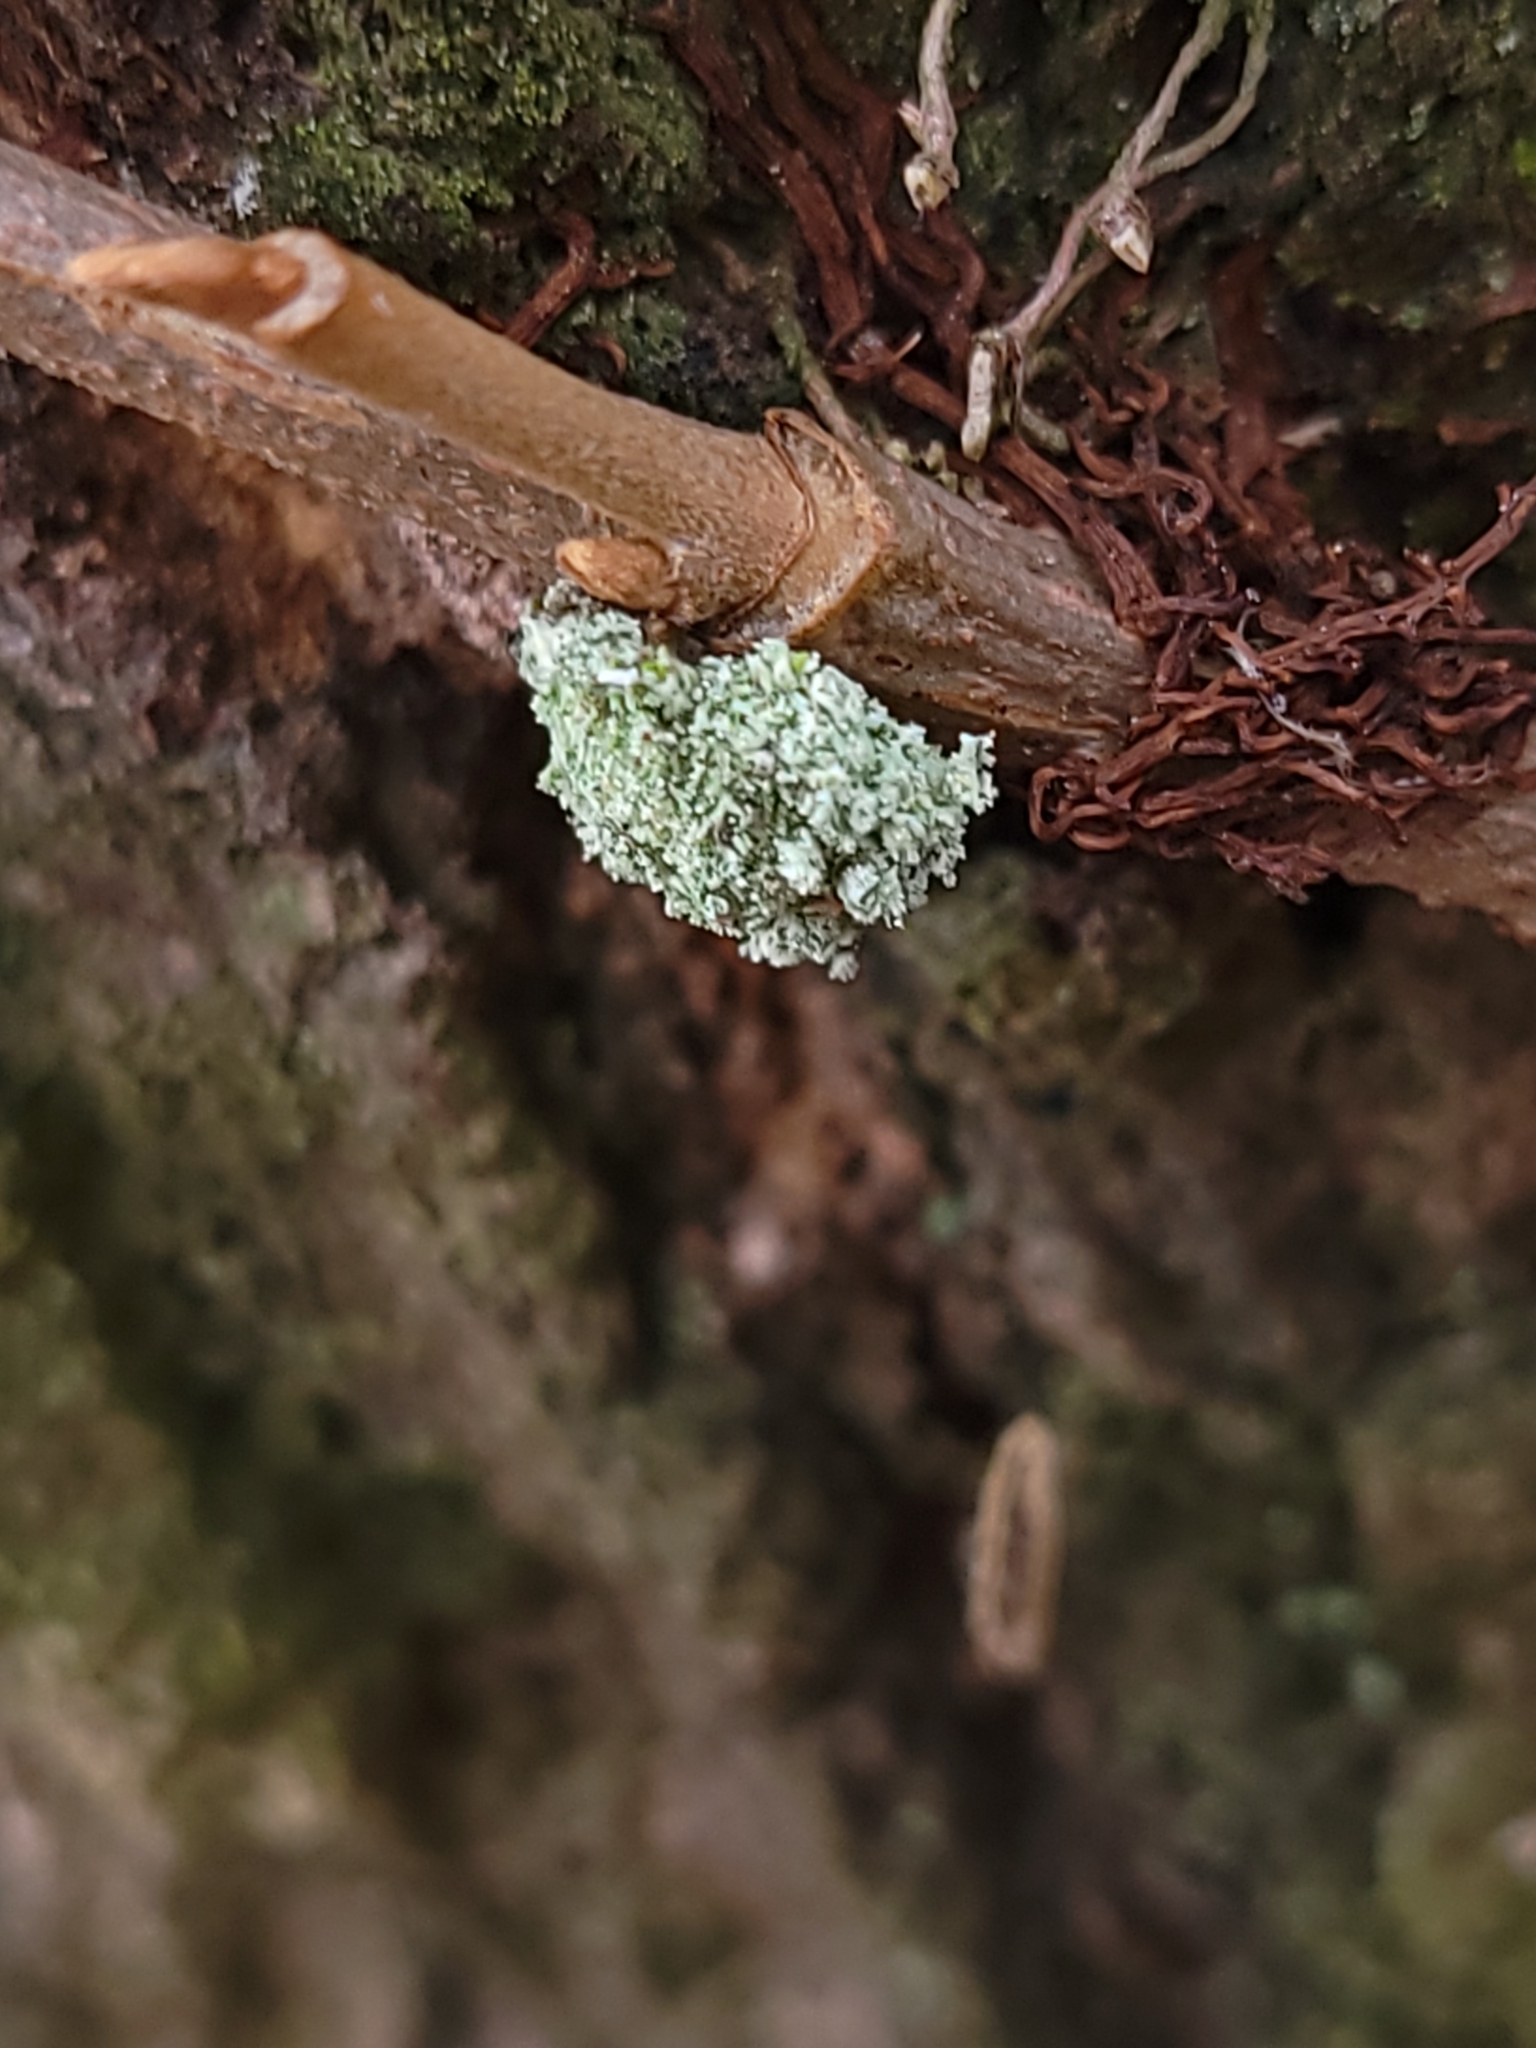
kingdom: Animalia
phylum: Arthropoda
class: Insecta
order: Neuroptera
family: Chrysopidae
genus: Leucochrysa
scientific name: Leucochrysa pavida
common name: Lichen-carrying green lacewing
